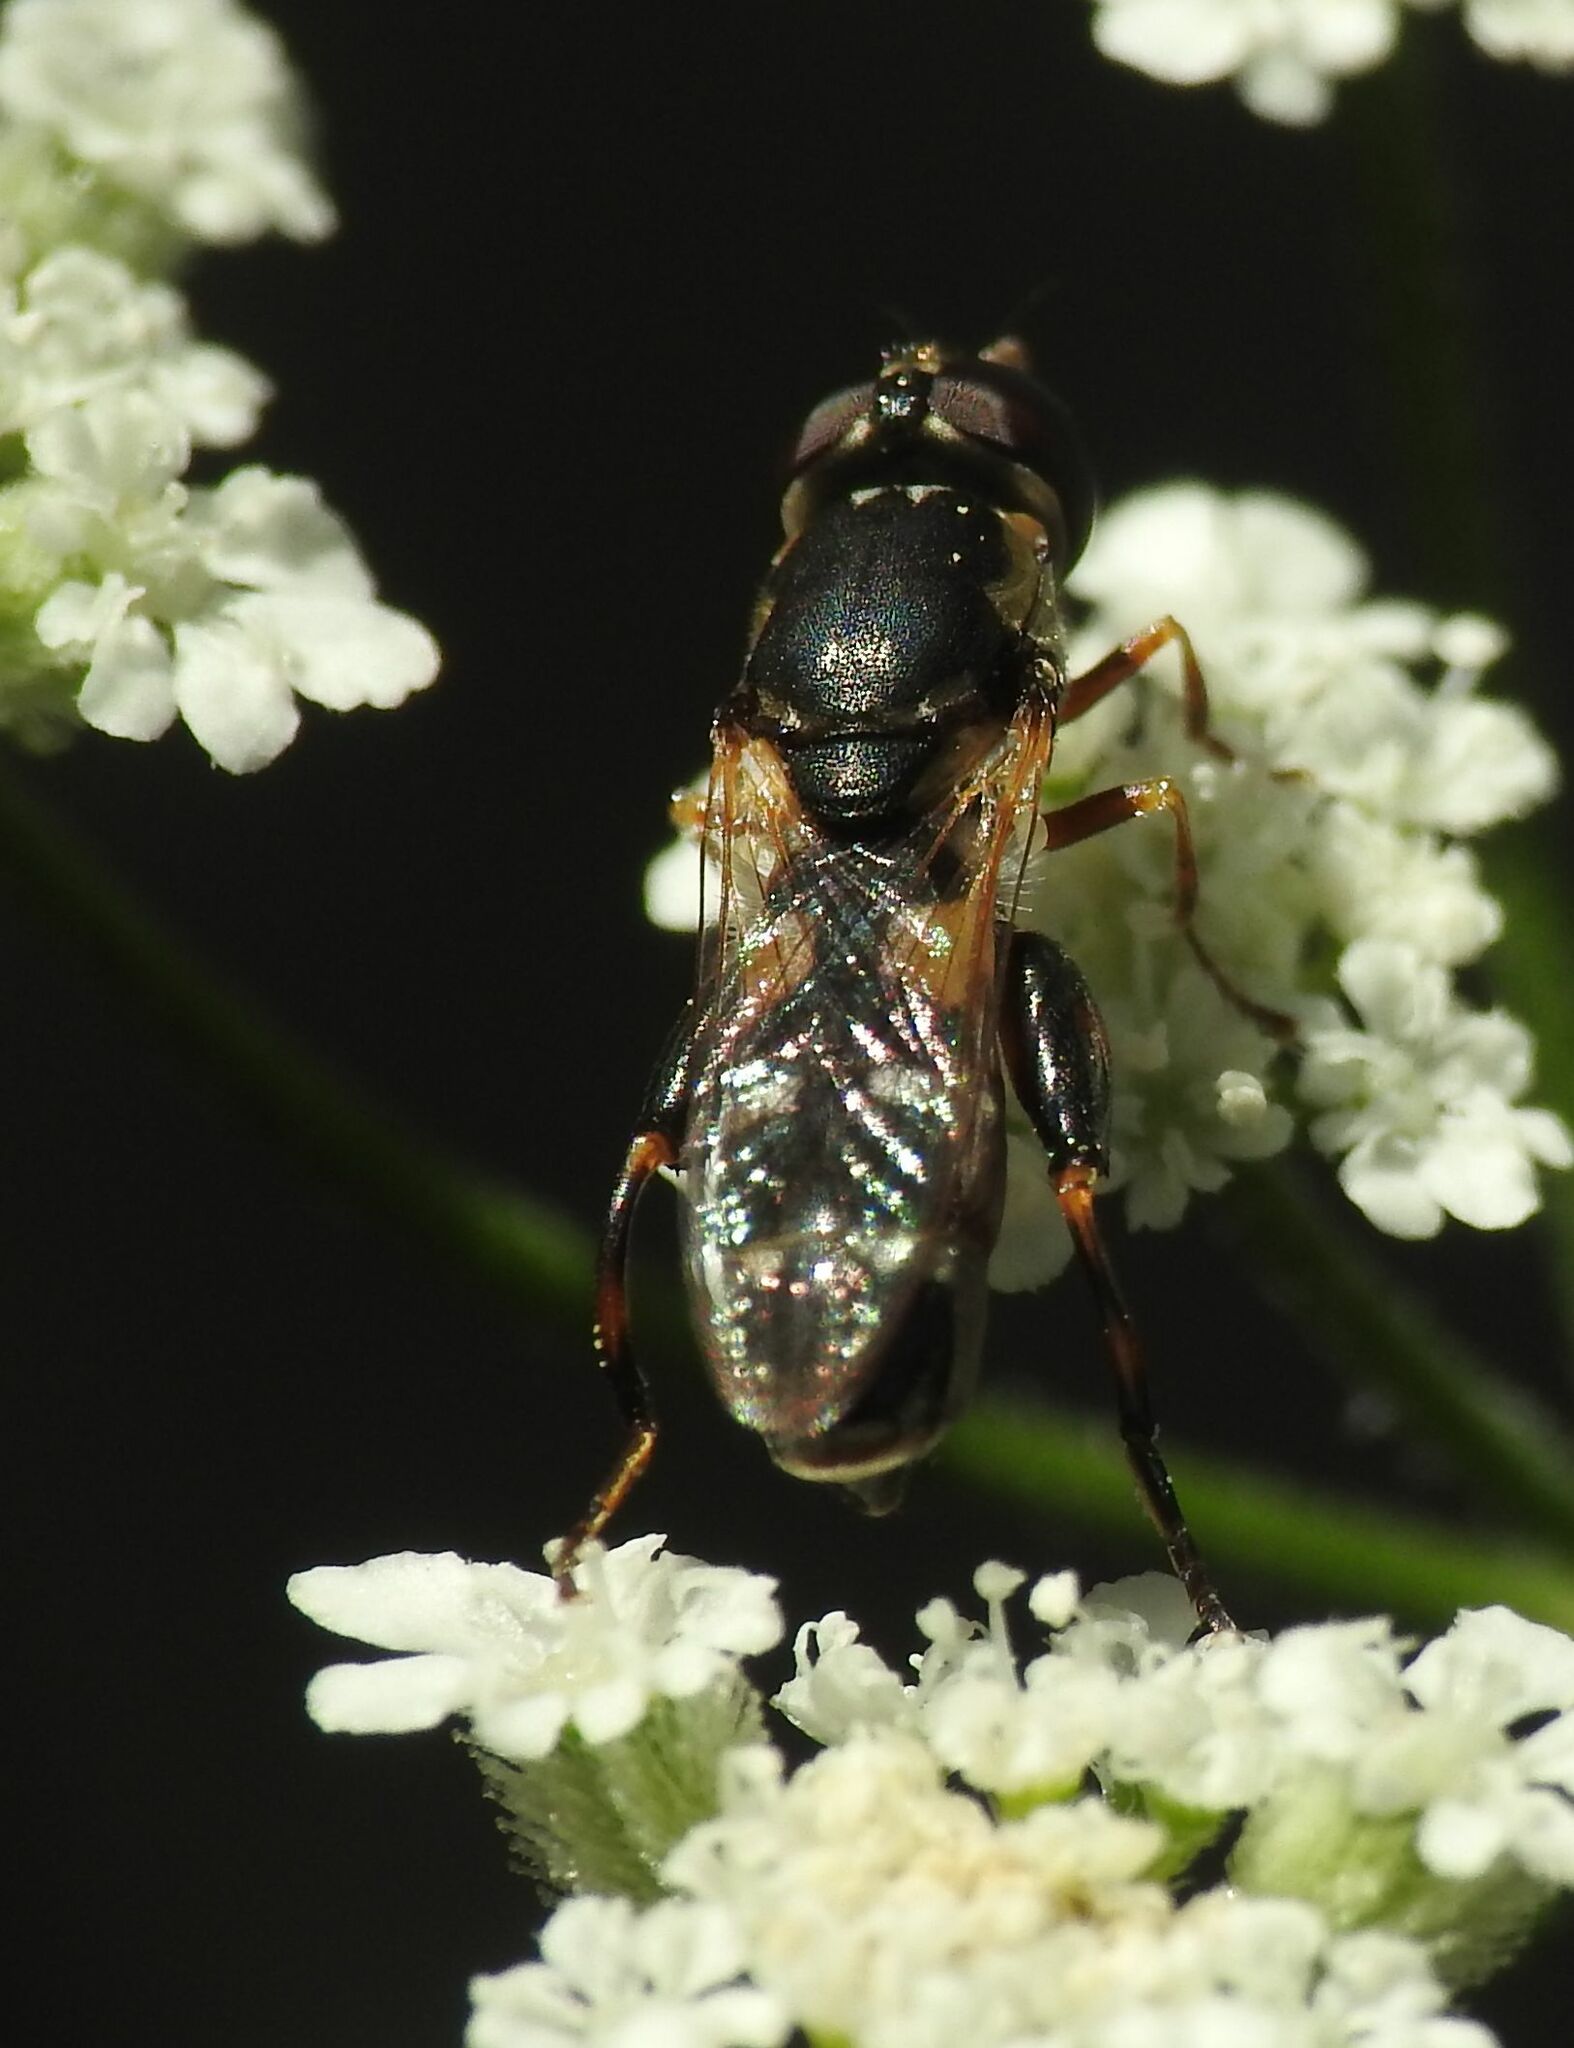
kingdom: Animalia
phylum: Arthropoda
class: Insecta
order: Diptera
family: Syrphidae
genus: Syritta
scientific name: Syritta pipiens
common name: Hover fly
